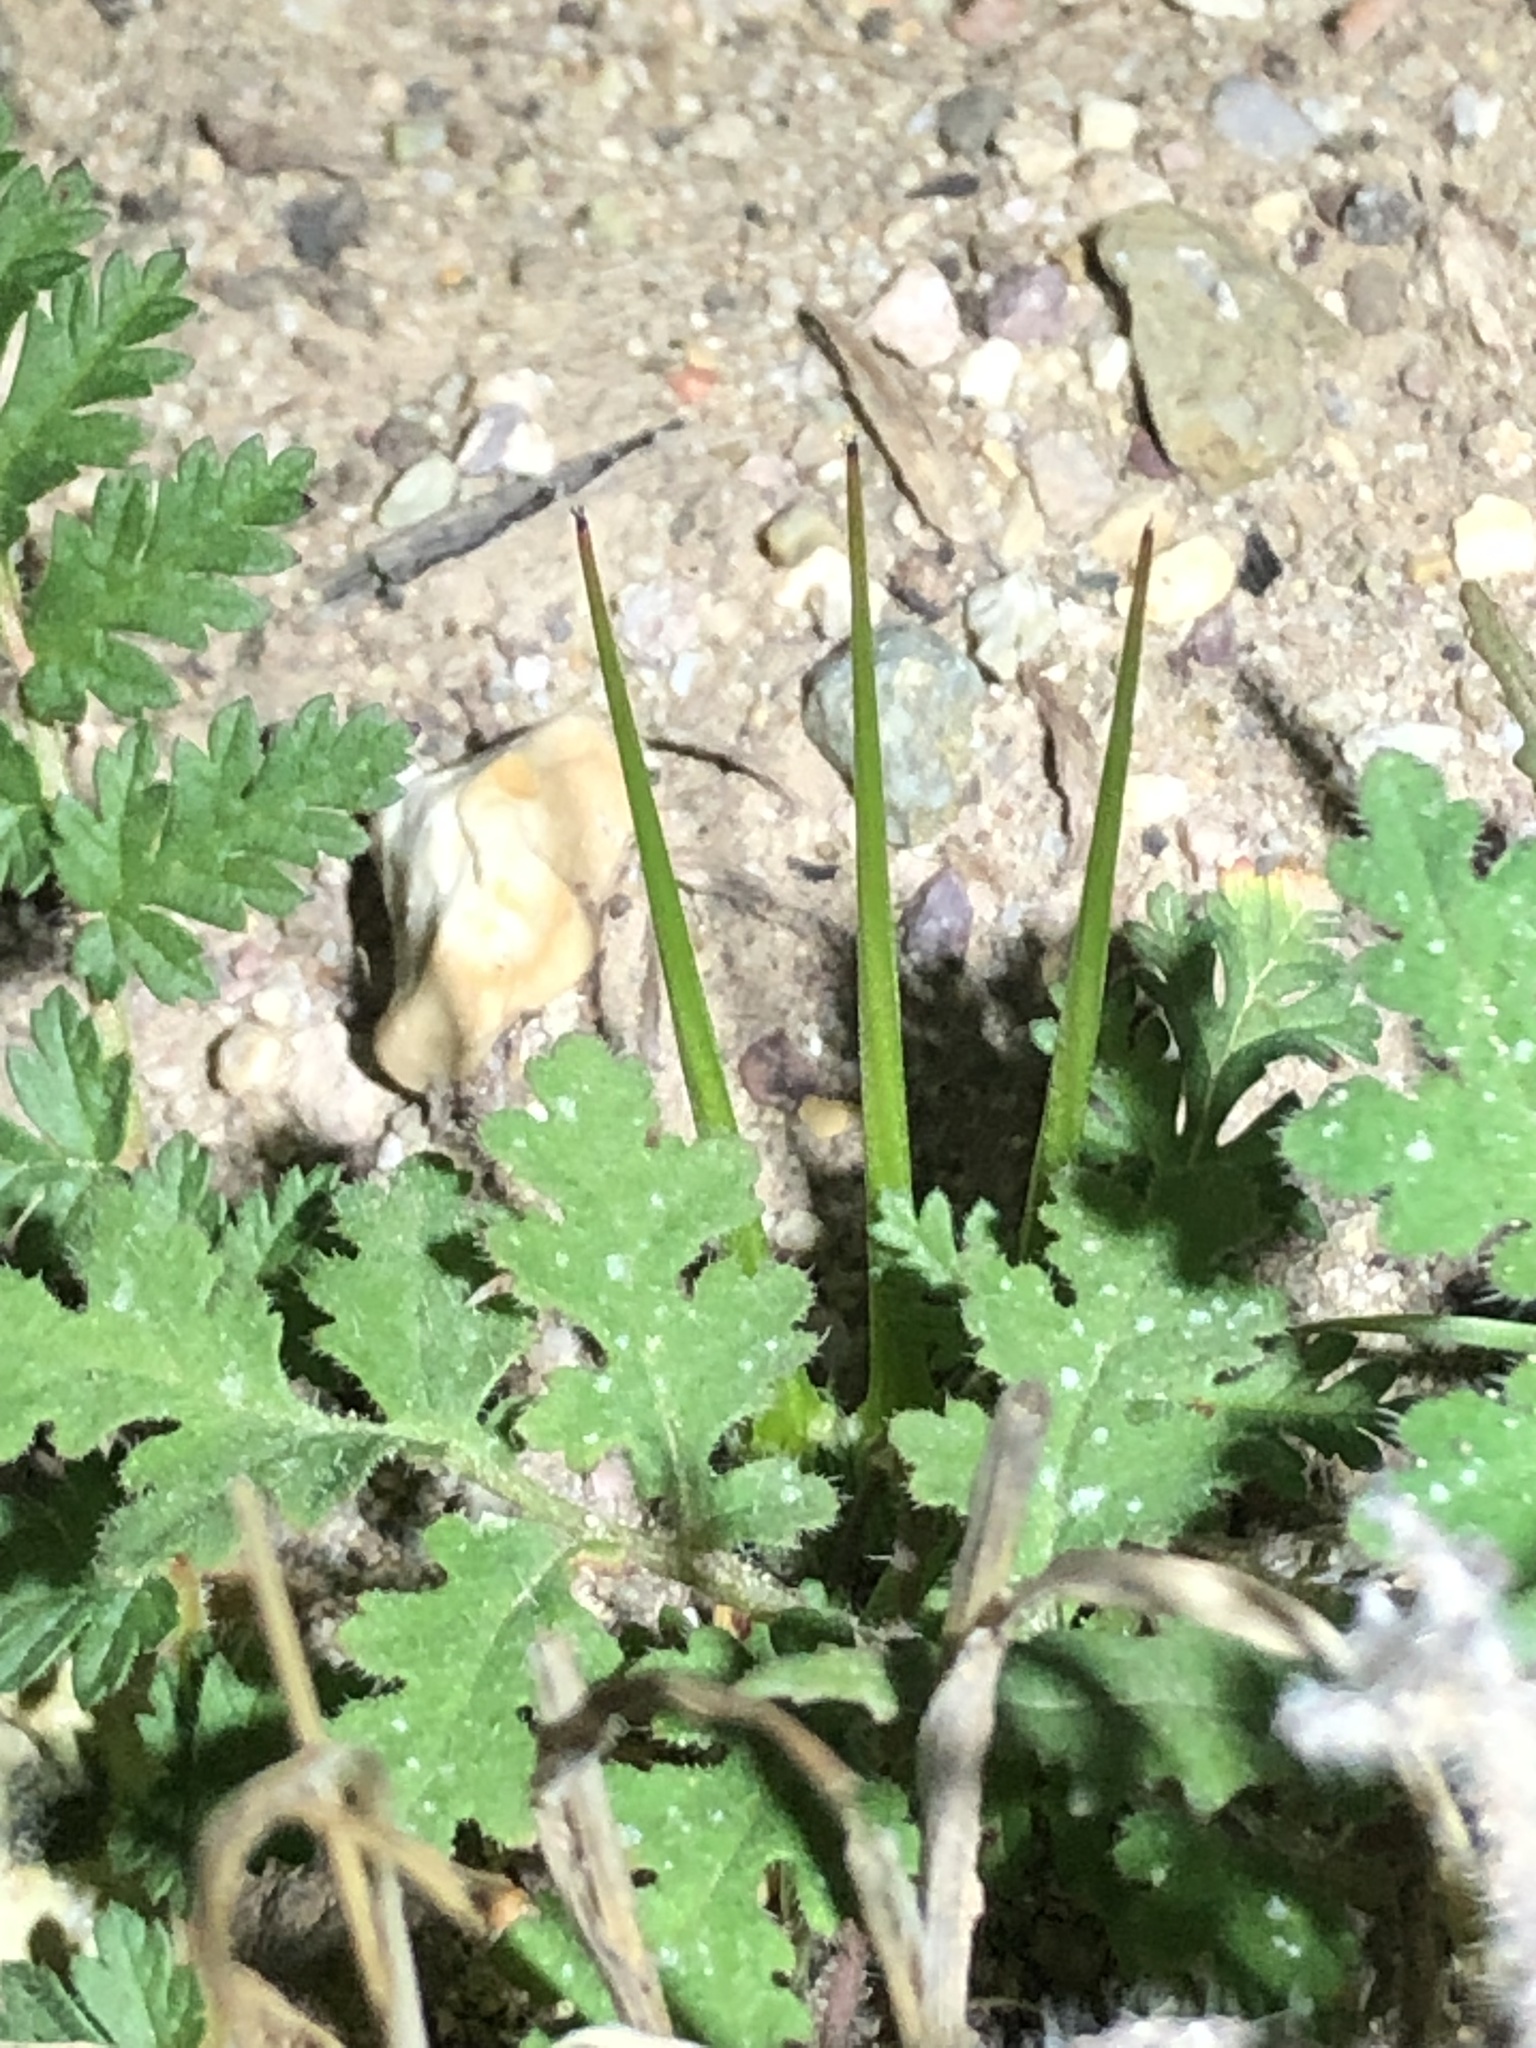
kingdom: Plantae
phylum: Tracheophyta
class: Magnoliopsida
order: Geraniales
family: Geraniaceae
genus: Erodium
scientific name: Erodium cicutarium
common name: Common stork's-bill
